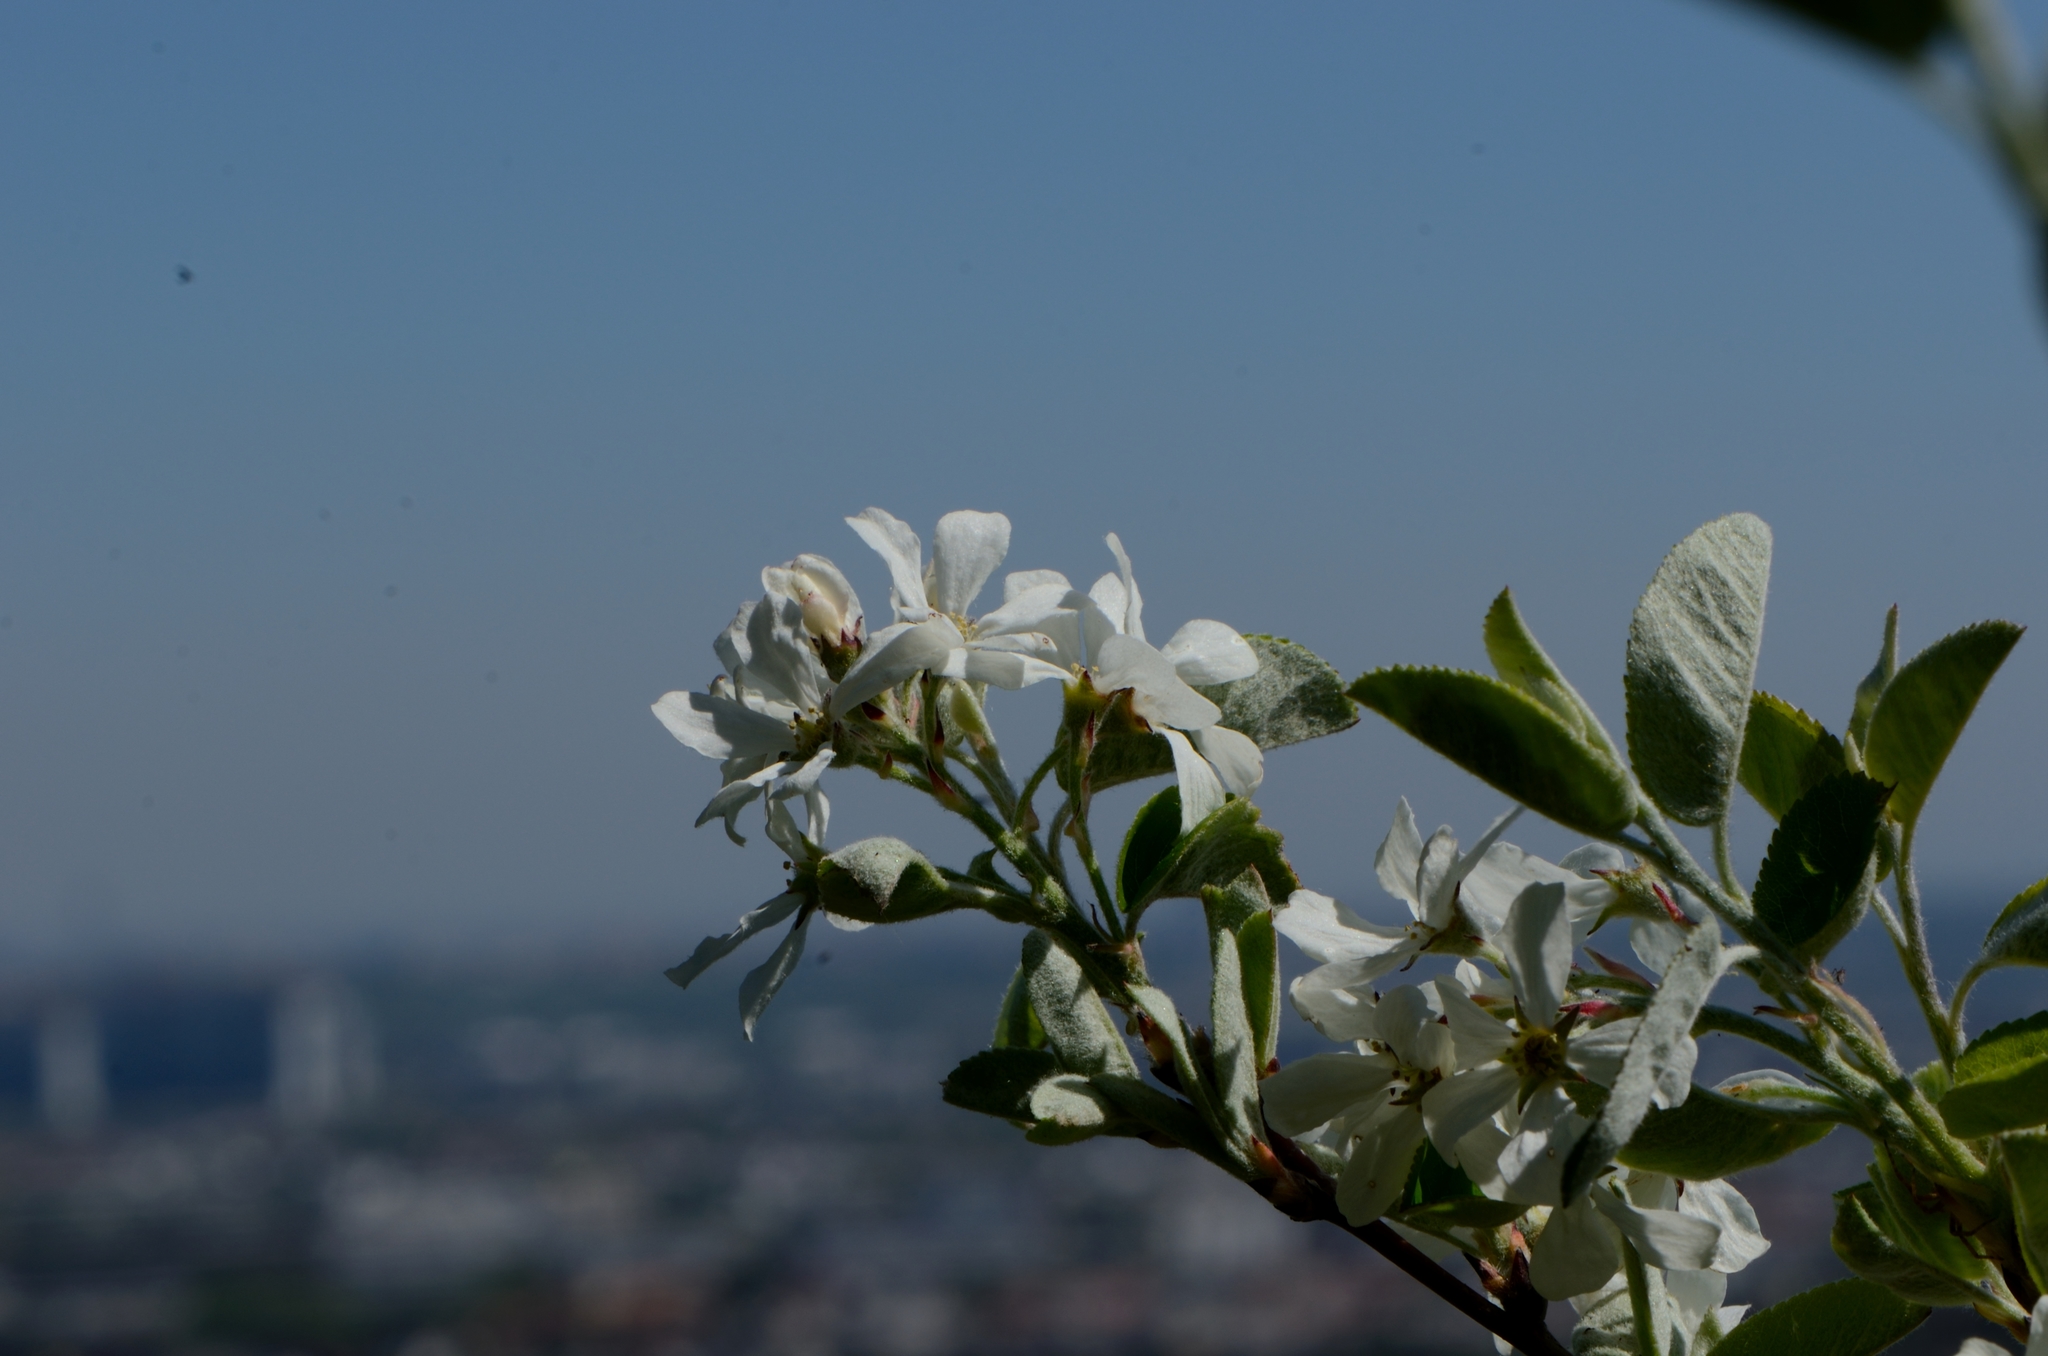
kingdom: Plantae
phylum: Tracheophyta
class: Magnoliopsida
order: Rosales
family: Rosaceae
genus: Amelanchier
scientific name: Amelanchier ovalis
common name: Serviceberry
